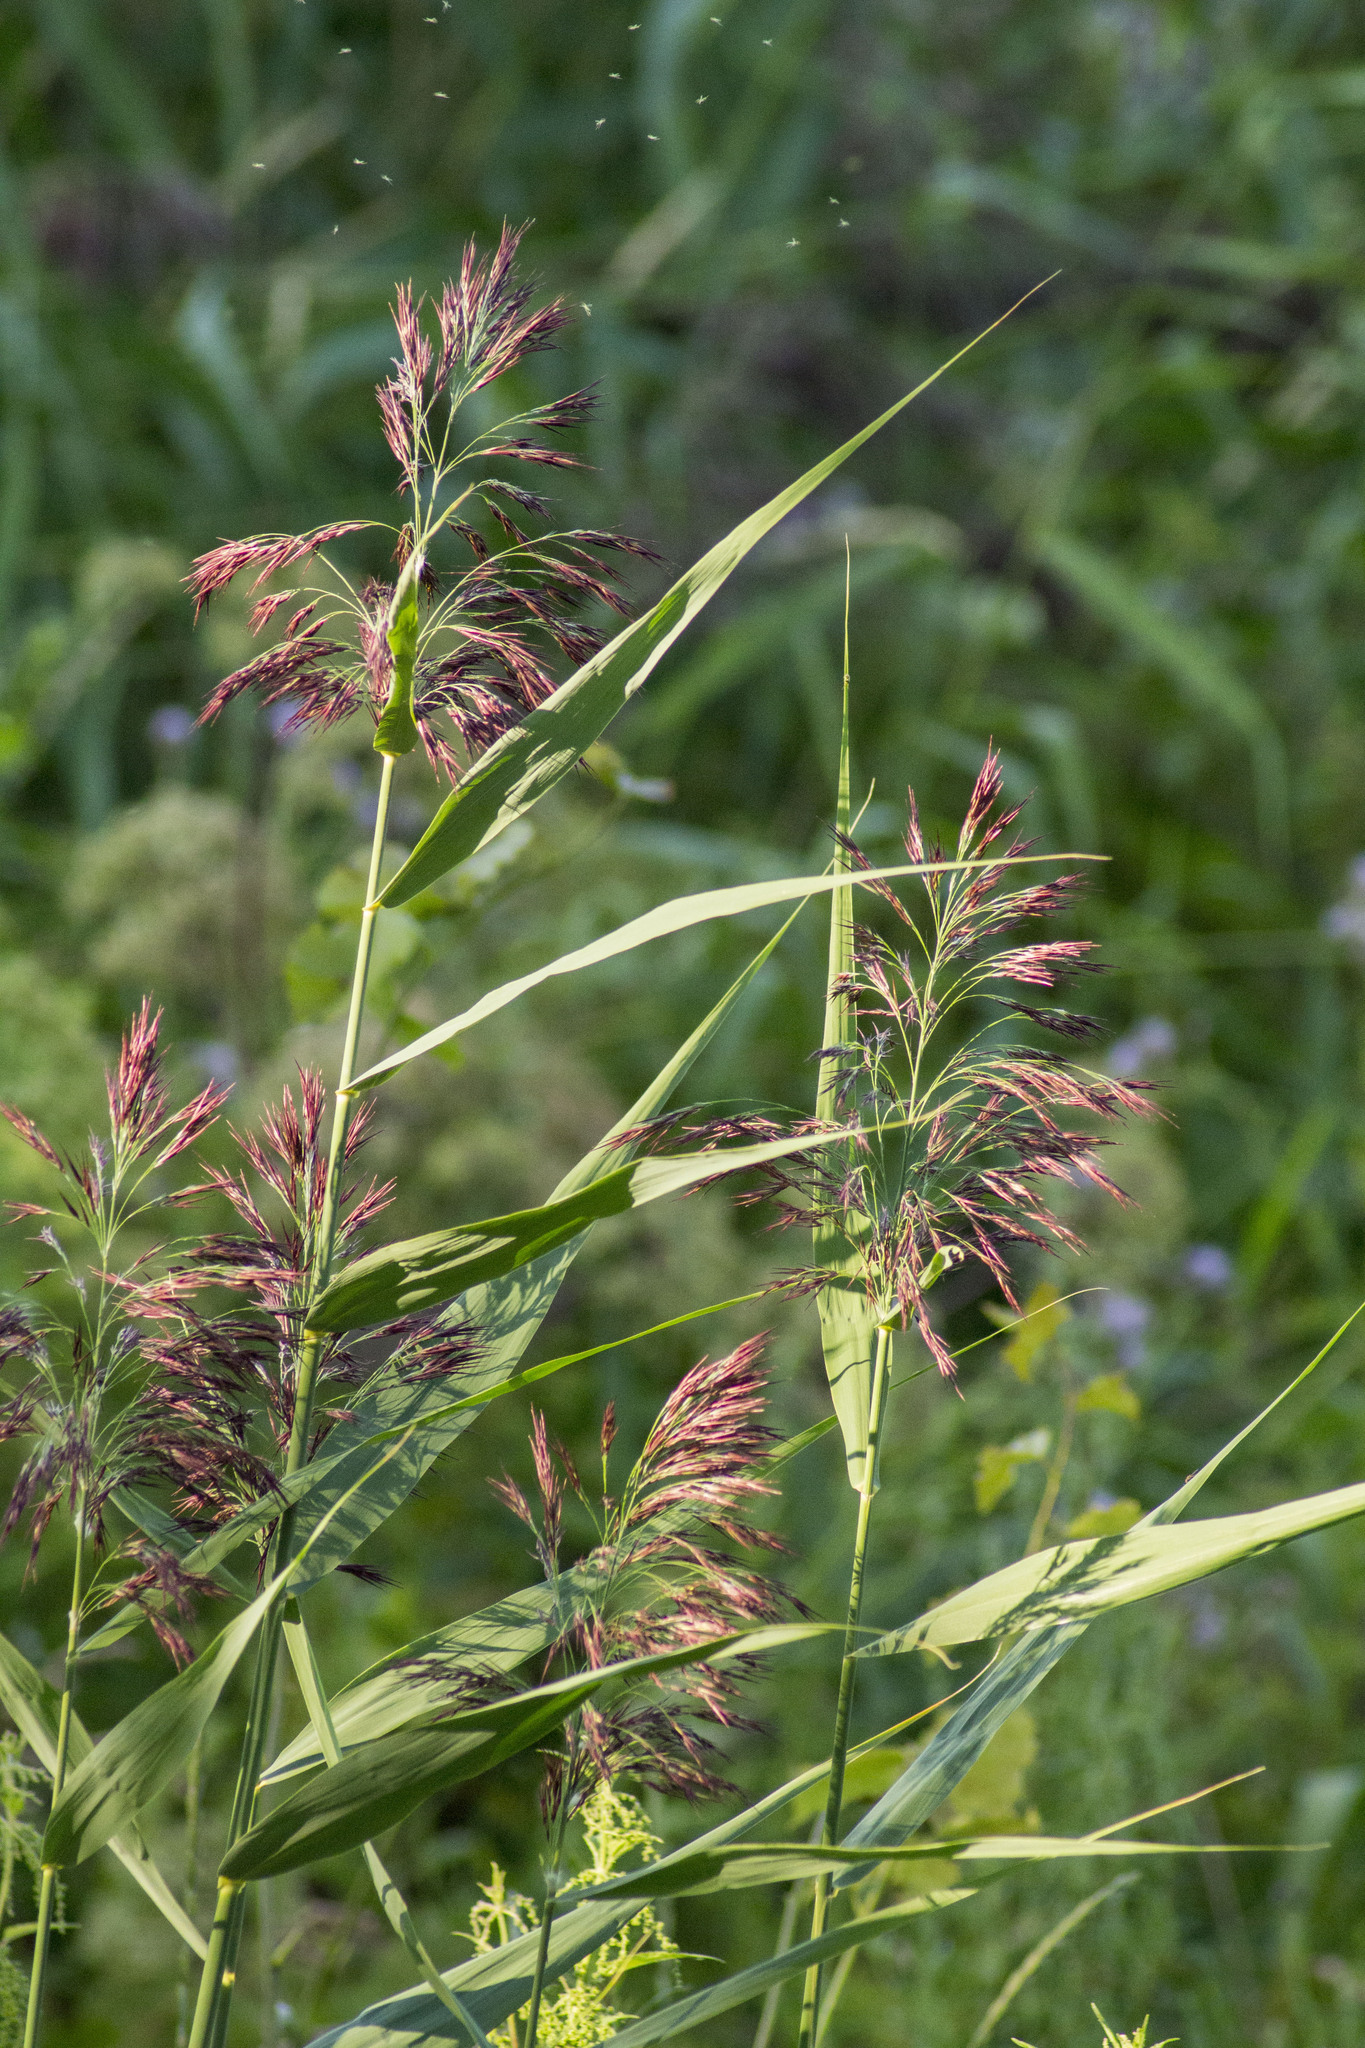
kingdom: Plantae
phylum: Tracheophyta
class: Liliopsida
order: Poales
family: Poaceae
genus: Phragmites
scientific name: Phragmites australis
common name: Common reed
